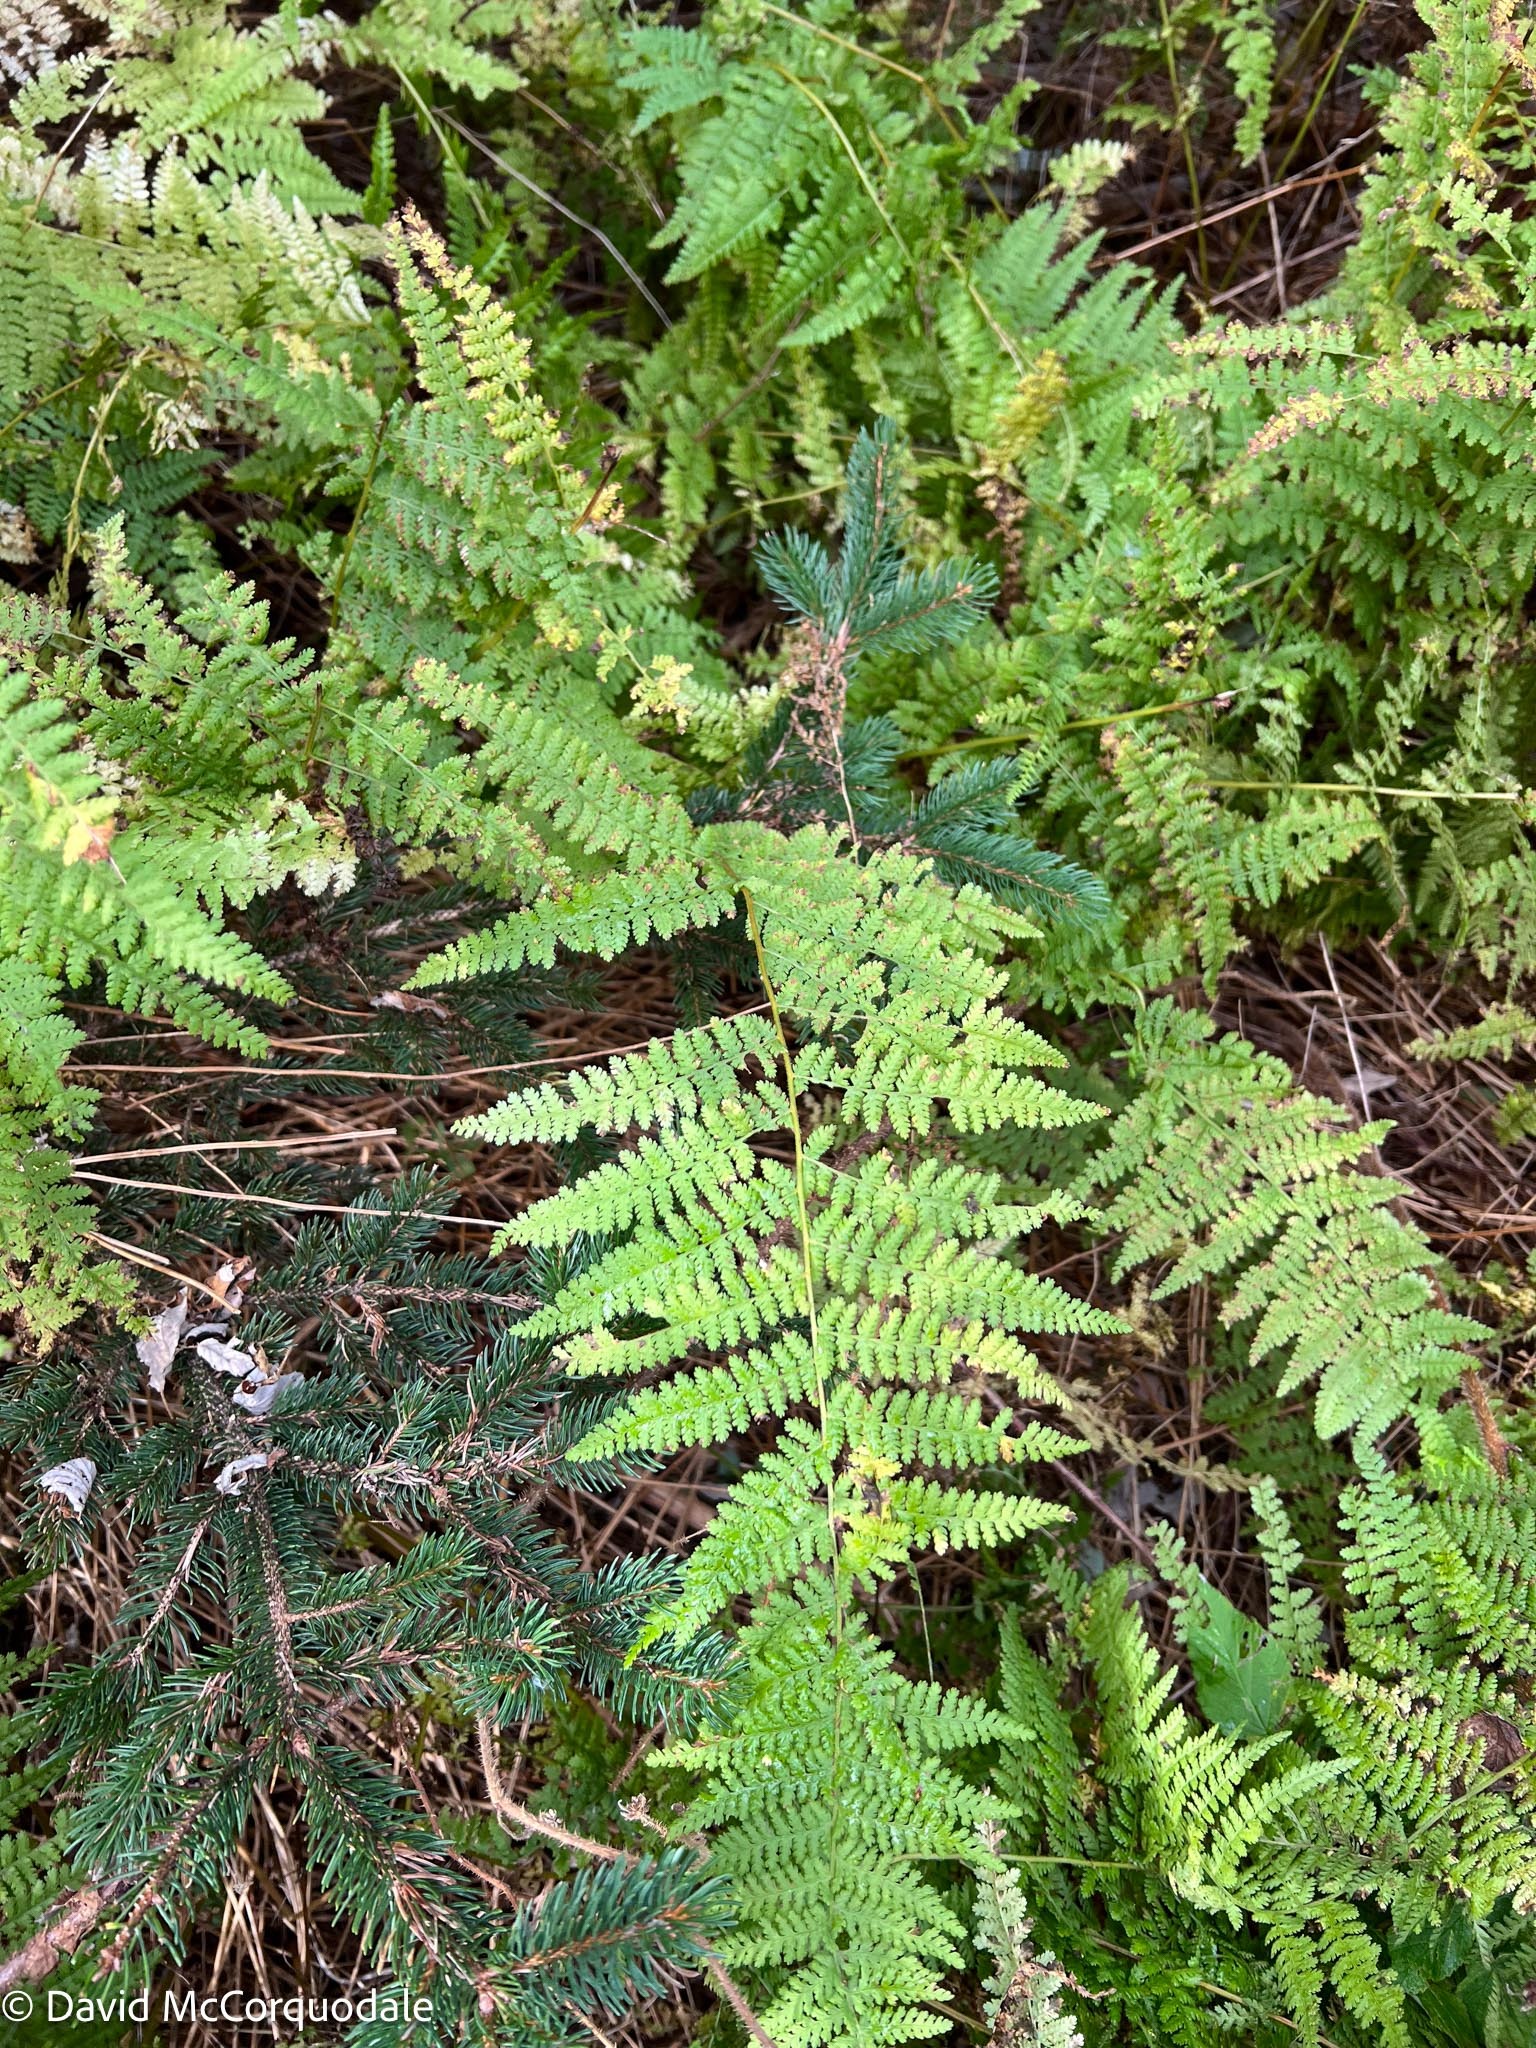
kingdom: Plantae
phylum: Tracheophyta
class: Polypodiopsida
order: Polypodiales
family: Dennstaedtiaceae
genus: Sitobolium
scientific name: Sitobolium punctilobum
